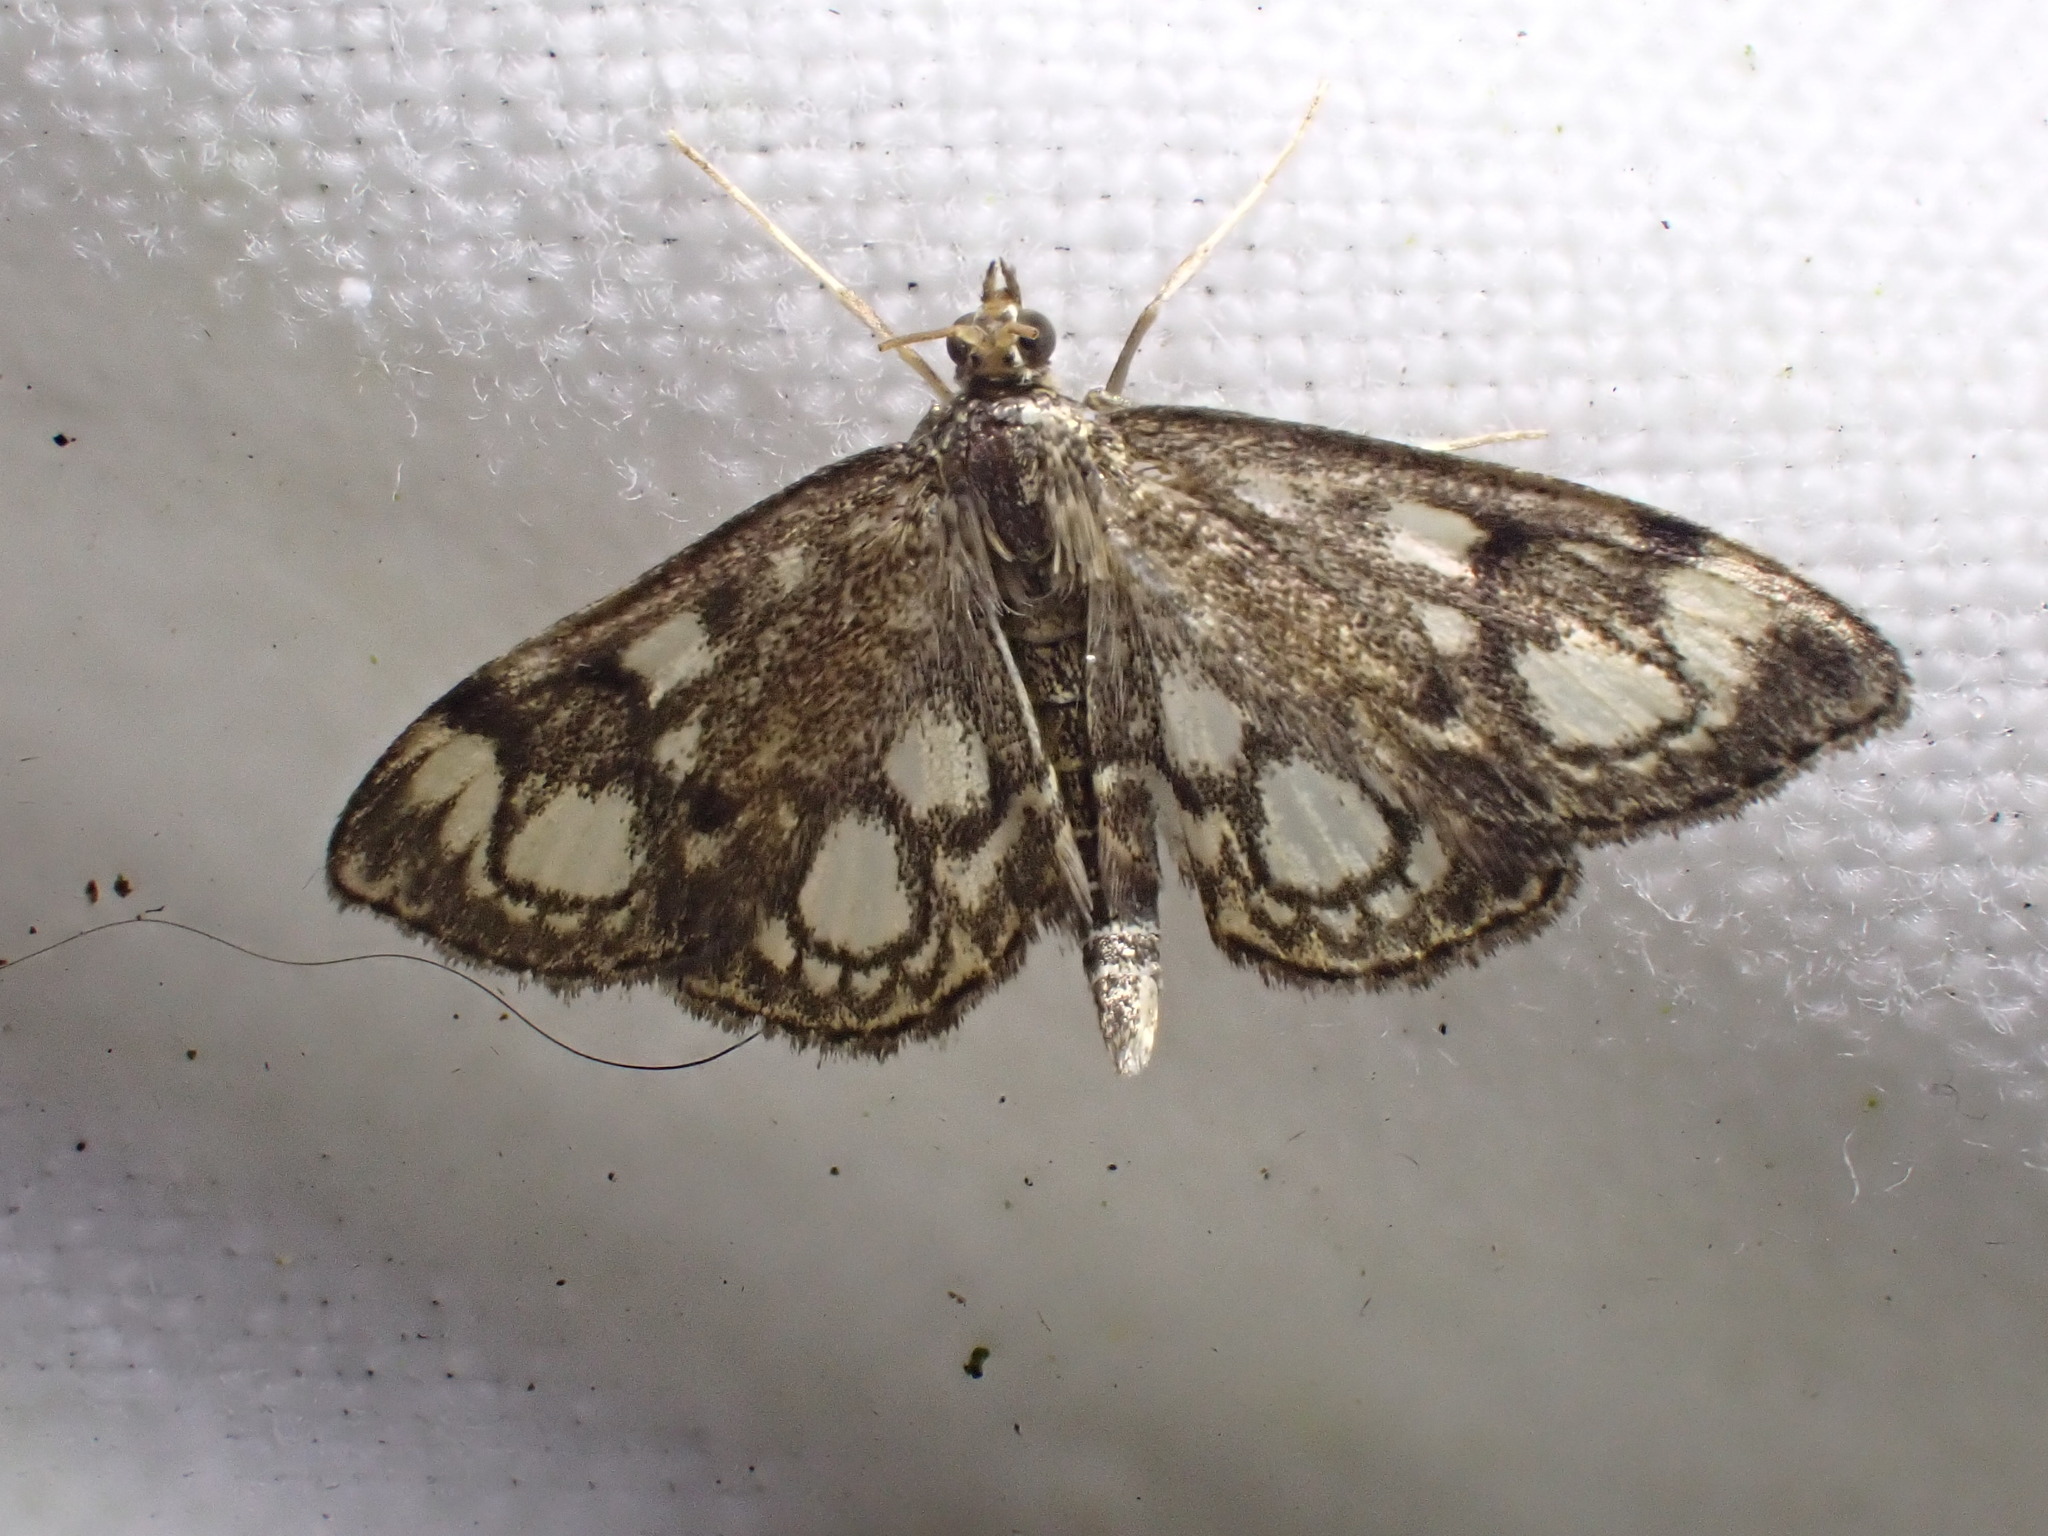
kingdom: Animalia
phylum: Arthropoda
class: Insecta
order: Lepidoptera
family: Crambidae
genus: Anania
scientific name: Anania coronata
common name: Elder pearl
